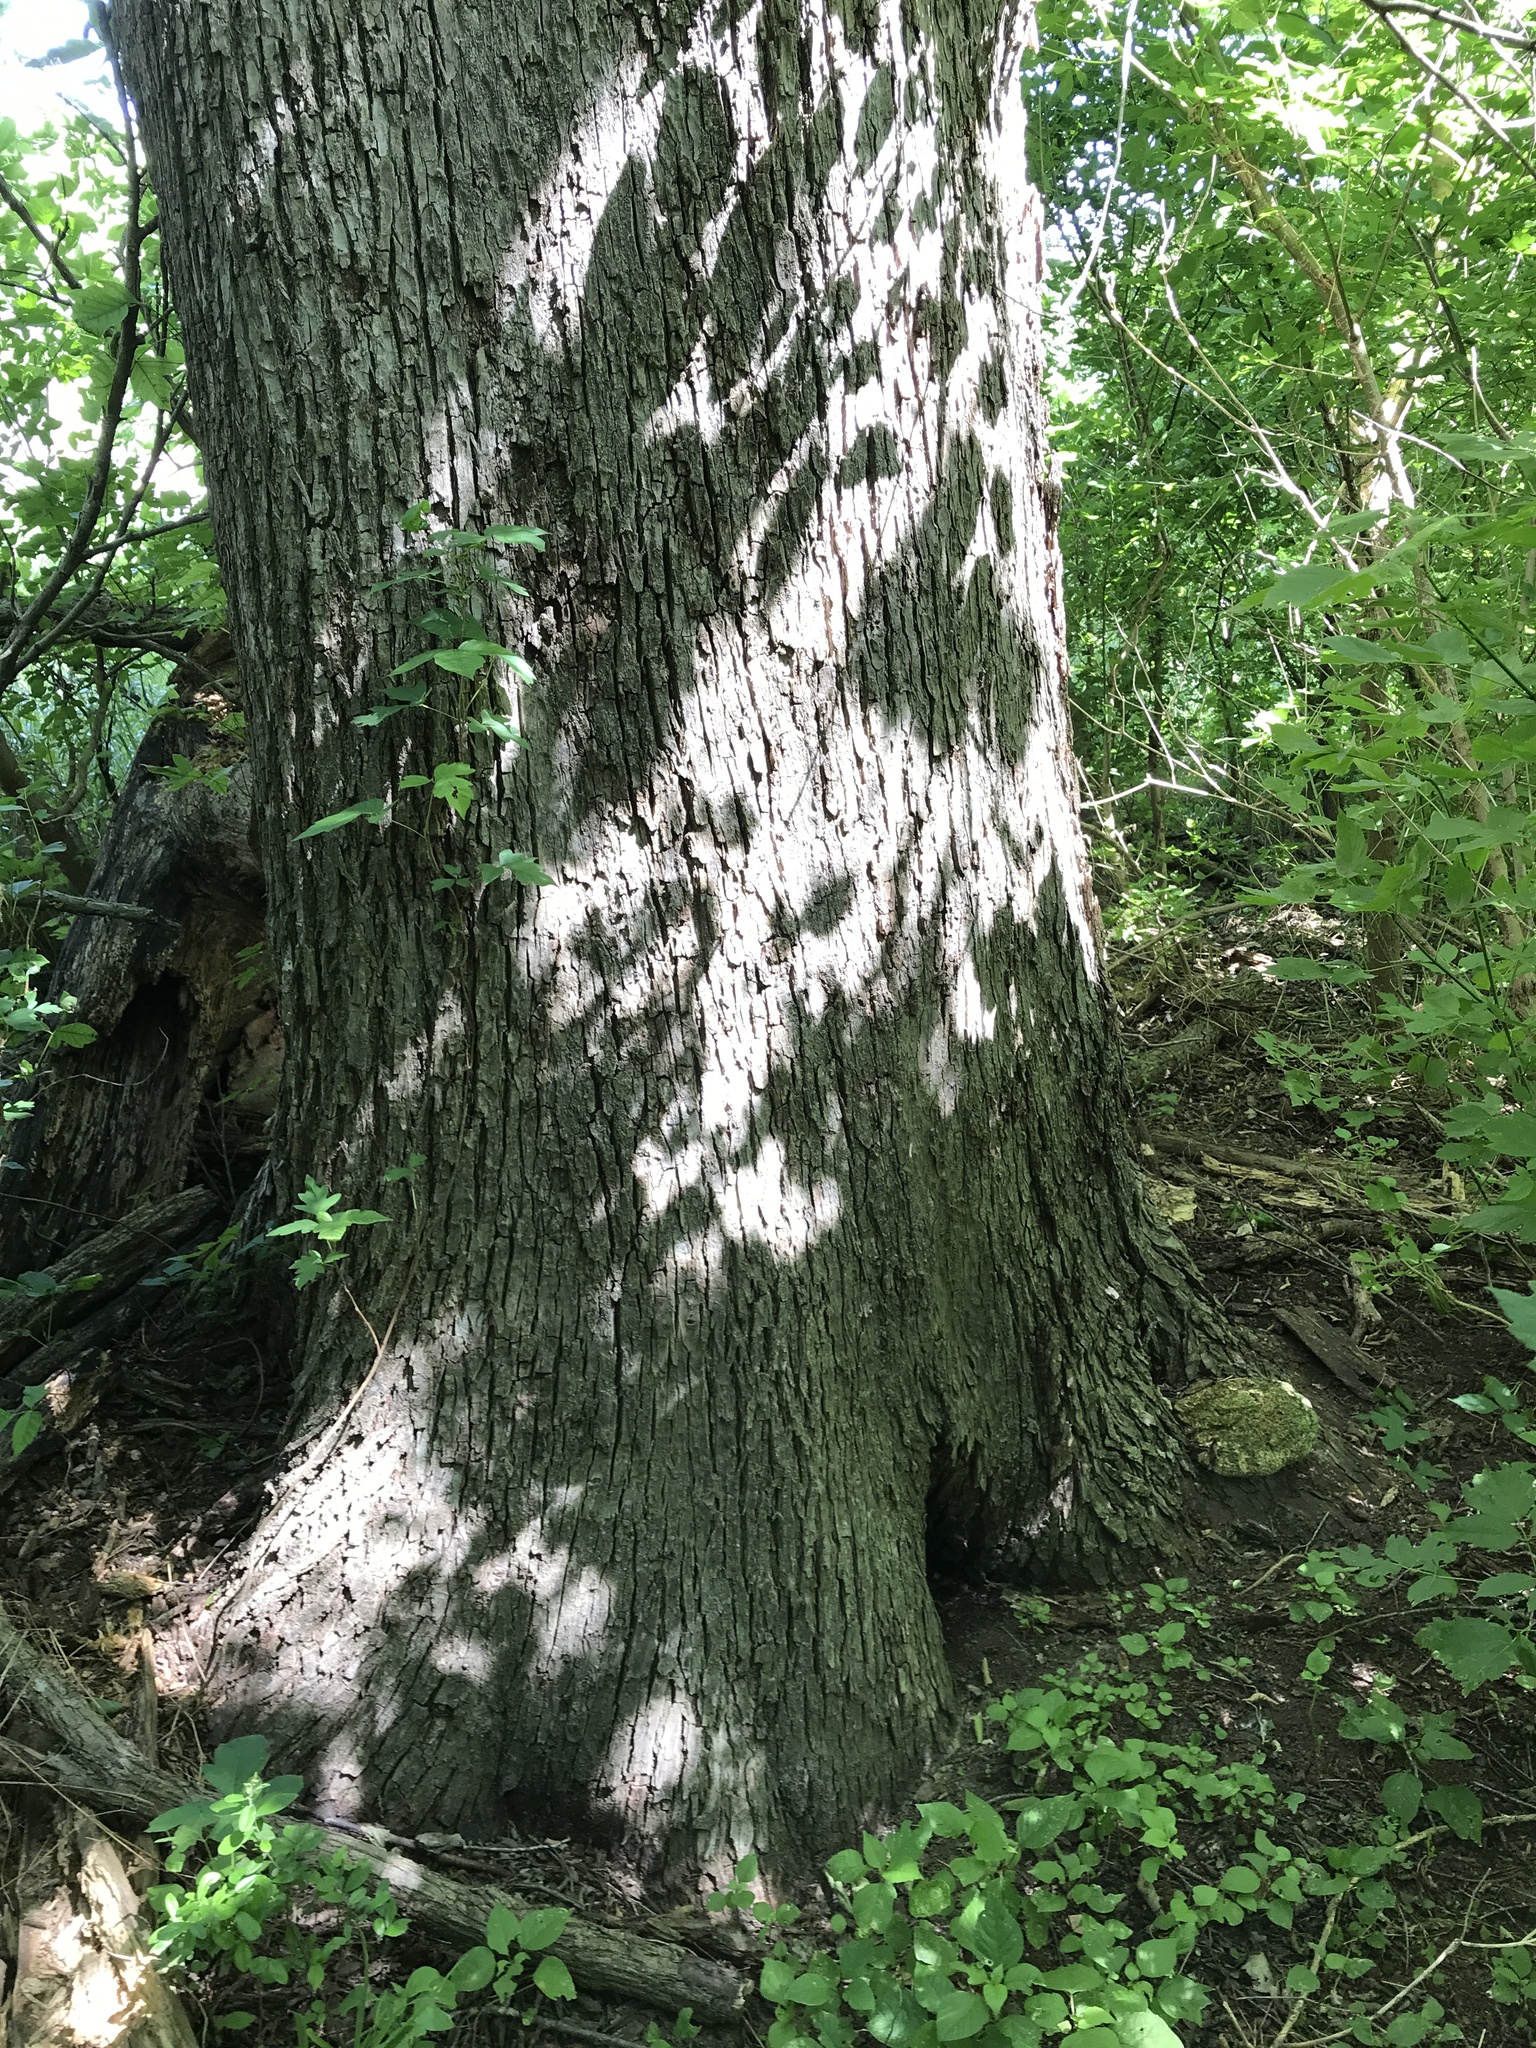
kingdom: Plantae
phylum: Tracheophyta
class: Magnoliopsida
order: Rosales
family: Ulmaceae
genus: Ulmus
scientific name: Ulmus americana
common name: American elm
